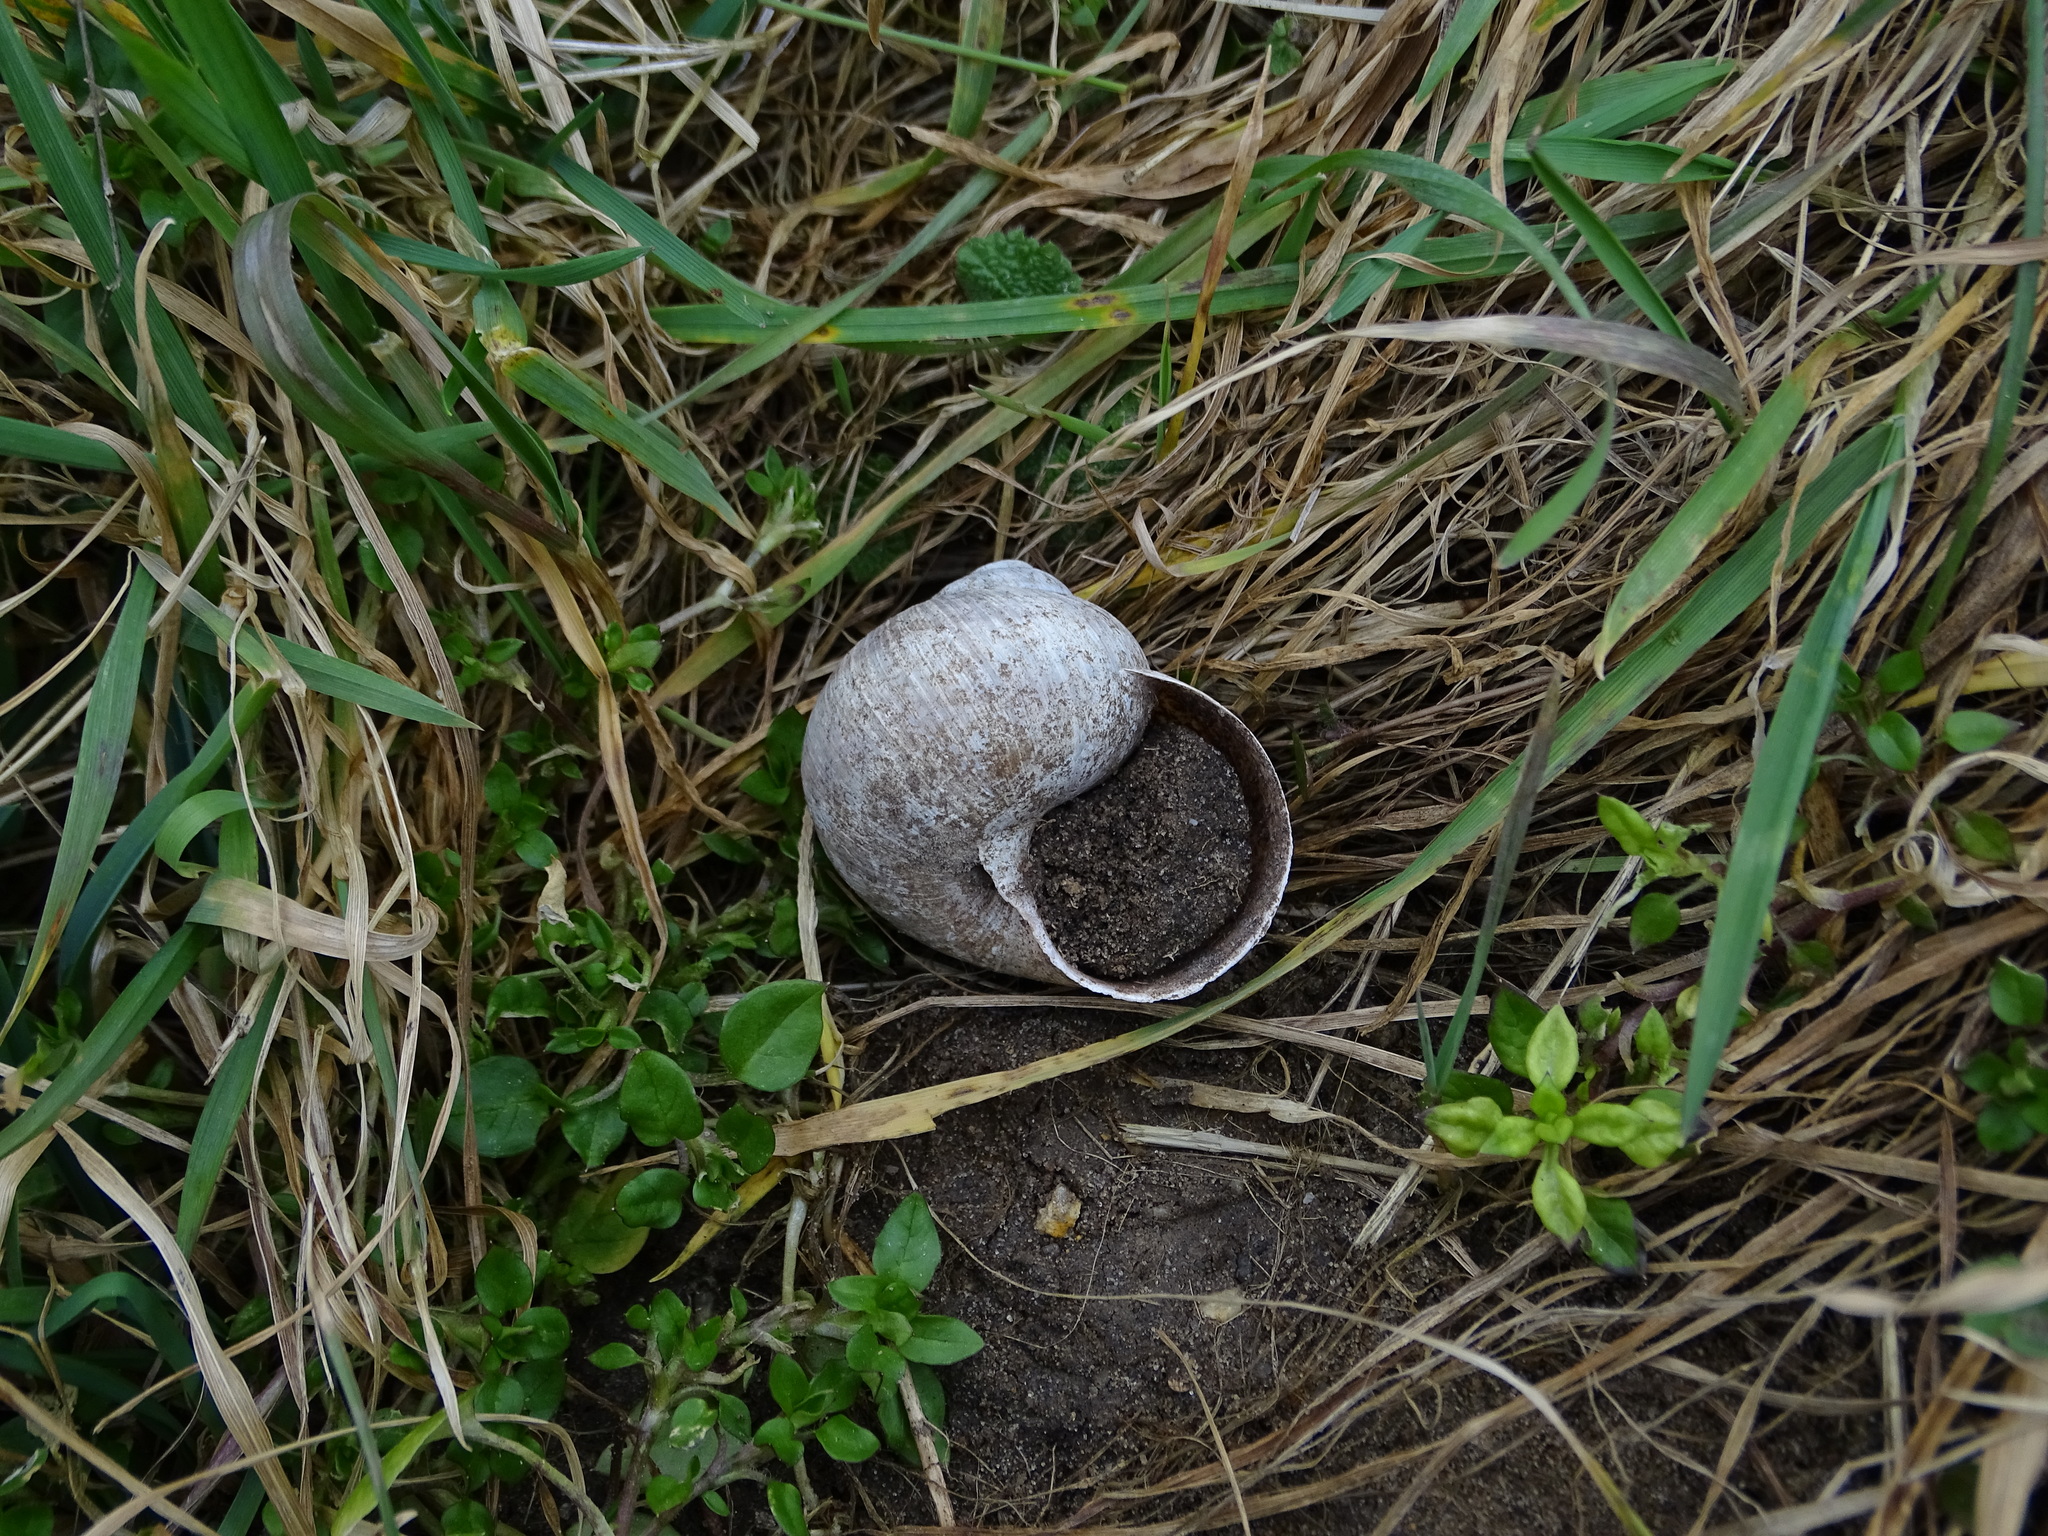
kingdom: Animalia
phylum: Mollusca
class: Gastropoda
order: Stylommatophora
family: Helicidae
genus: Helix
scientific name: Helix pomatia
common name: Roman snail
